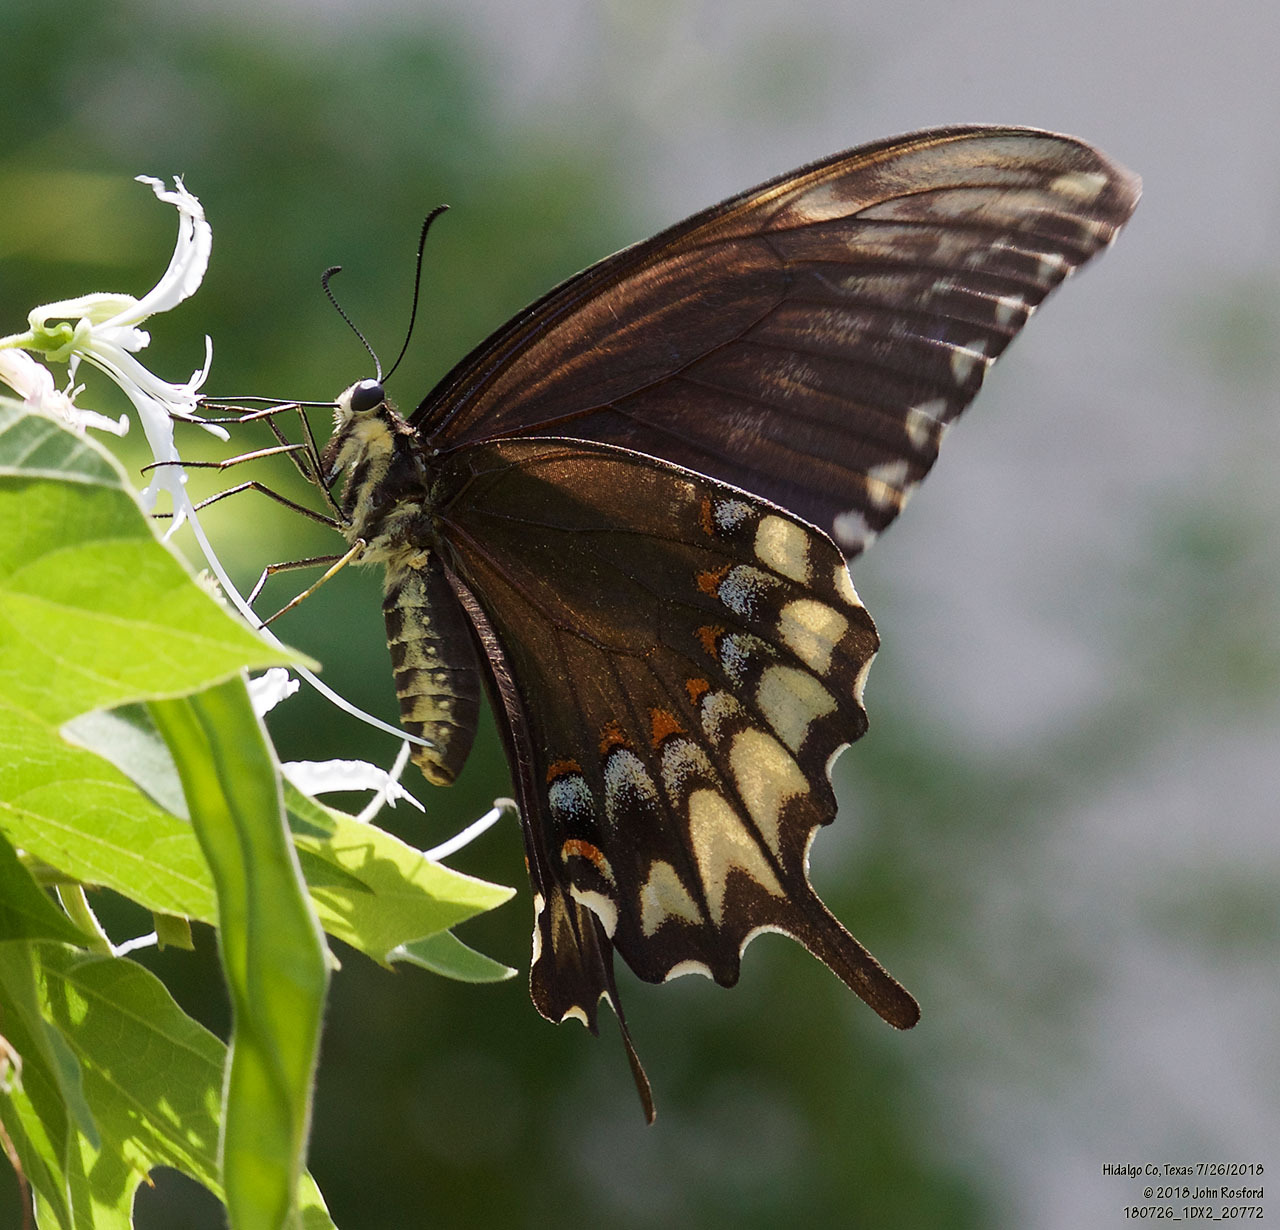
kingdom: Animalia
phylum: Arthropoda
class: Insecta
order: Lepidoptera
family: Papilionidae
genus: Papilio
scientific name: Papilio ornythion
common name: Ornythion swallowtail
